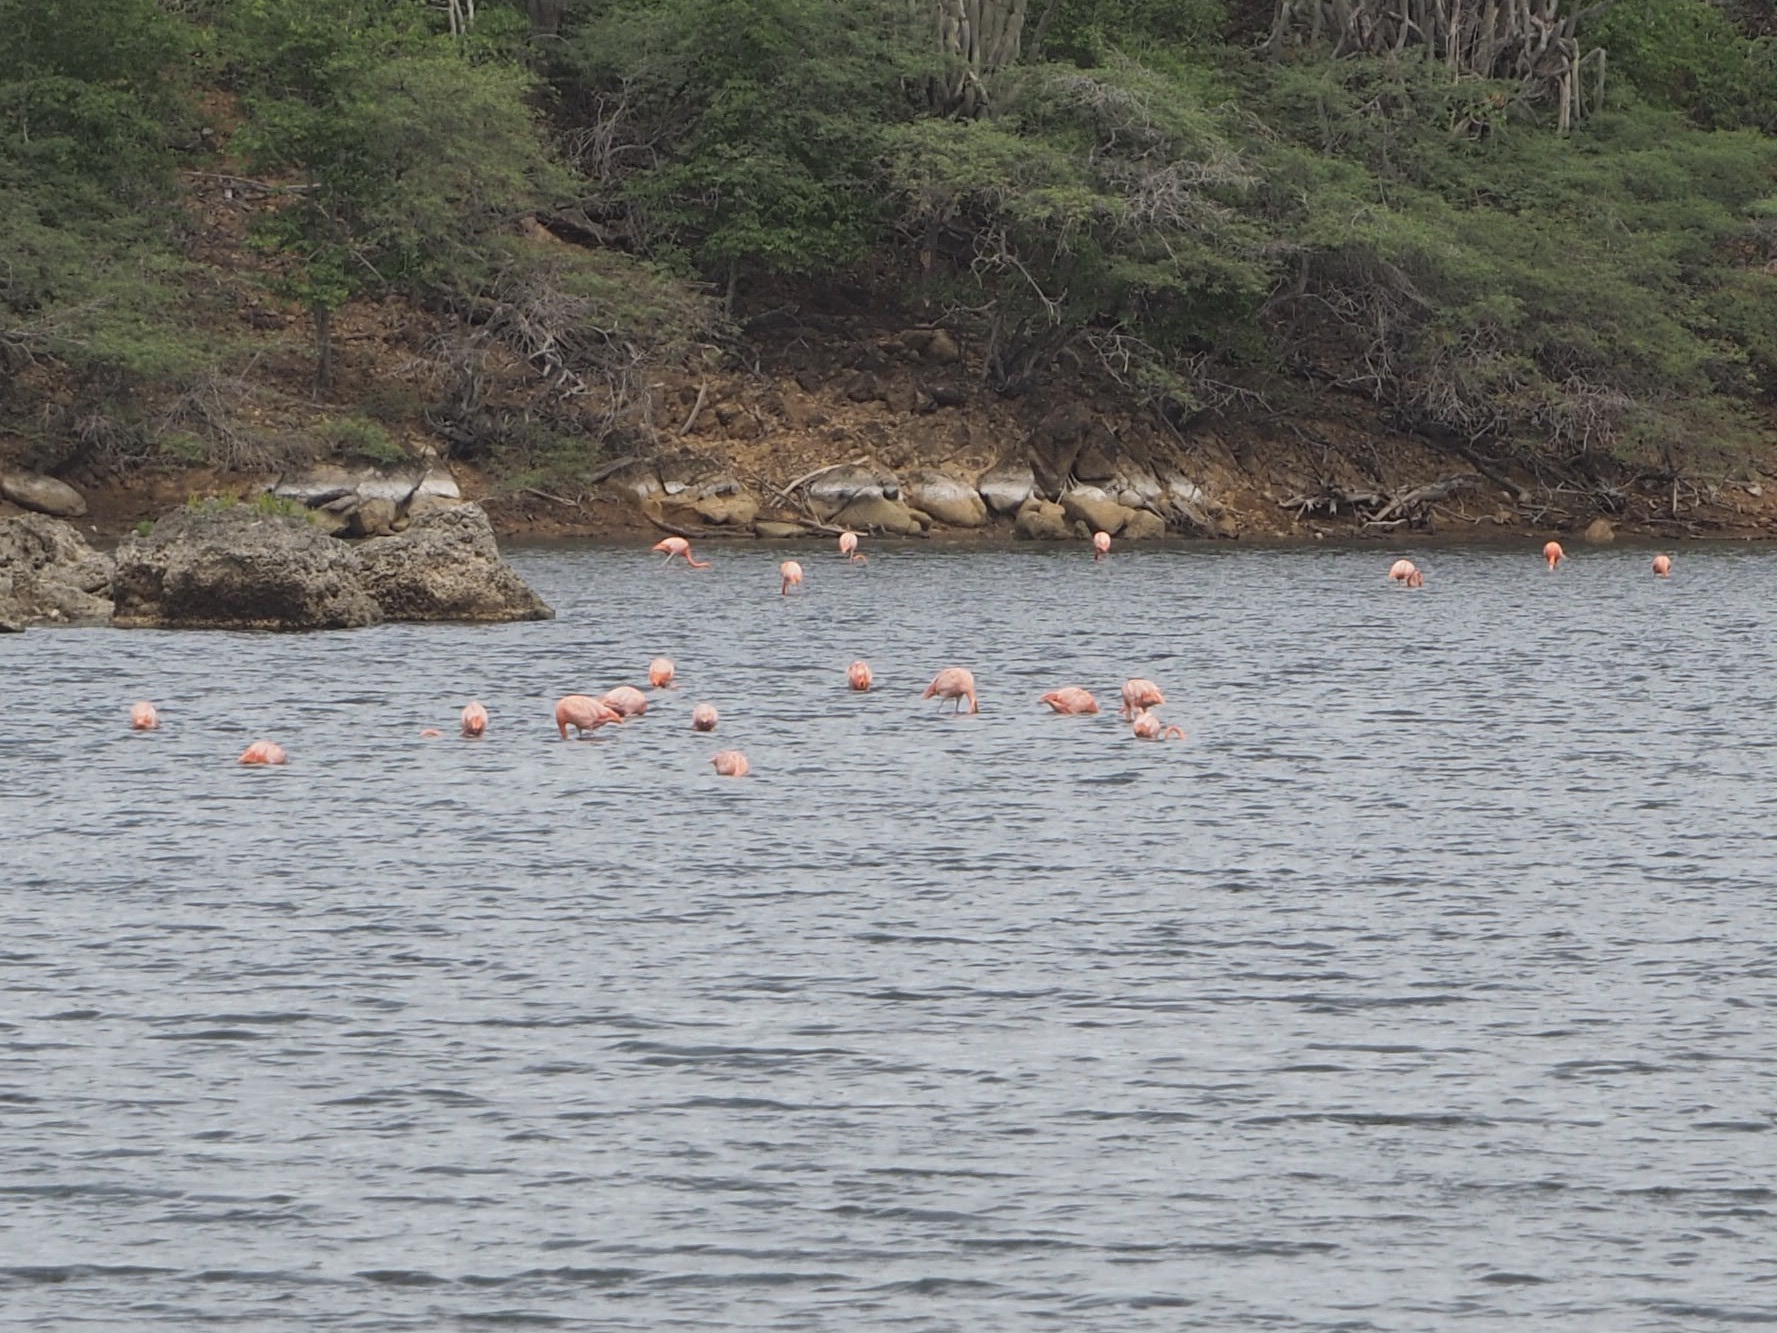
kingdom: Animalia
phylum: Chordata
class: Aves
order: Phoenicopteriformes
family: Phoenicopteridae
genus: Phoenicopterus
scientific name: Phoenicopterus ruber
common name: American flamingo
